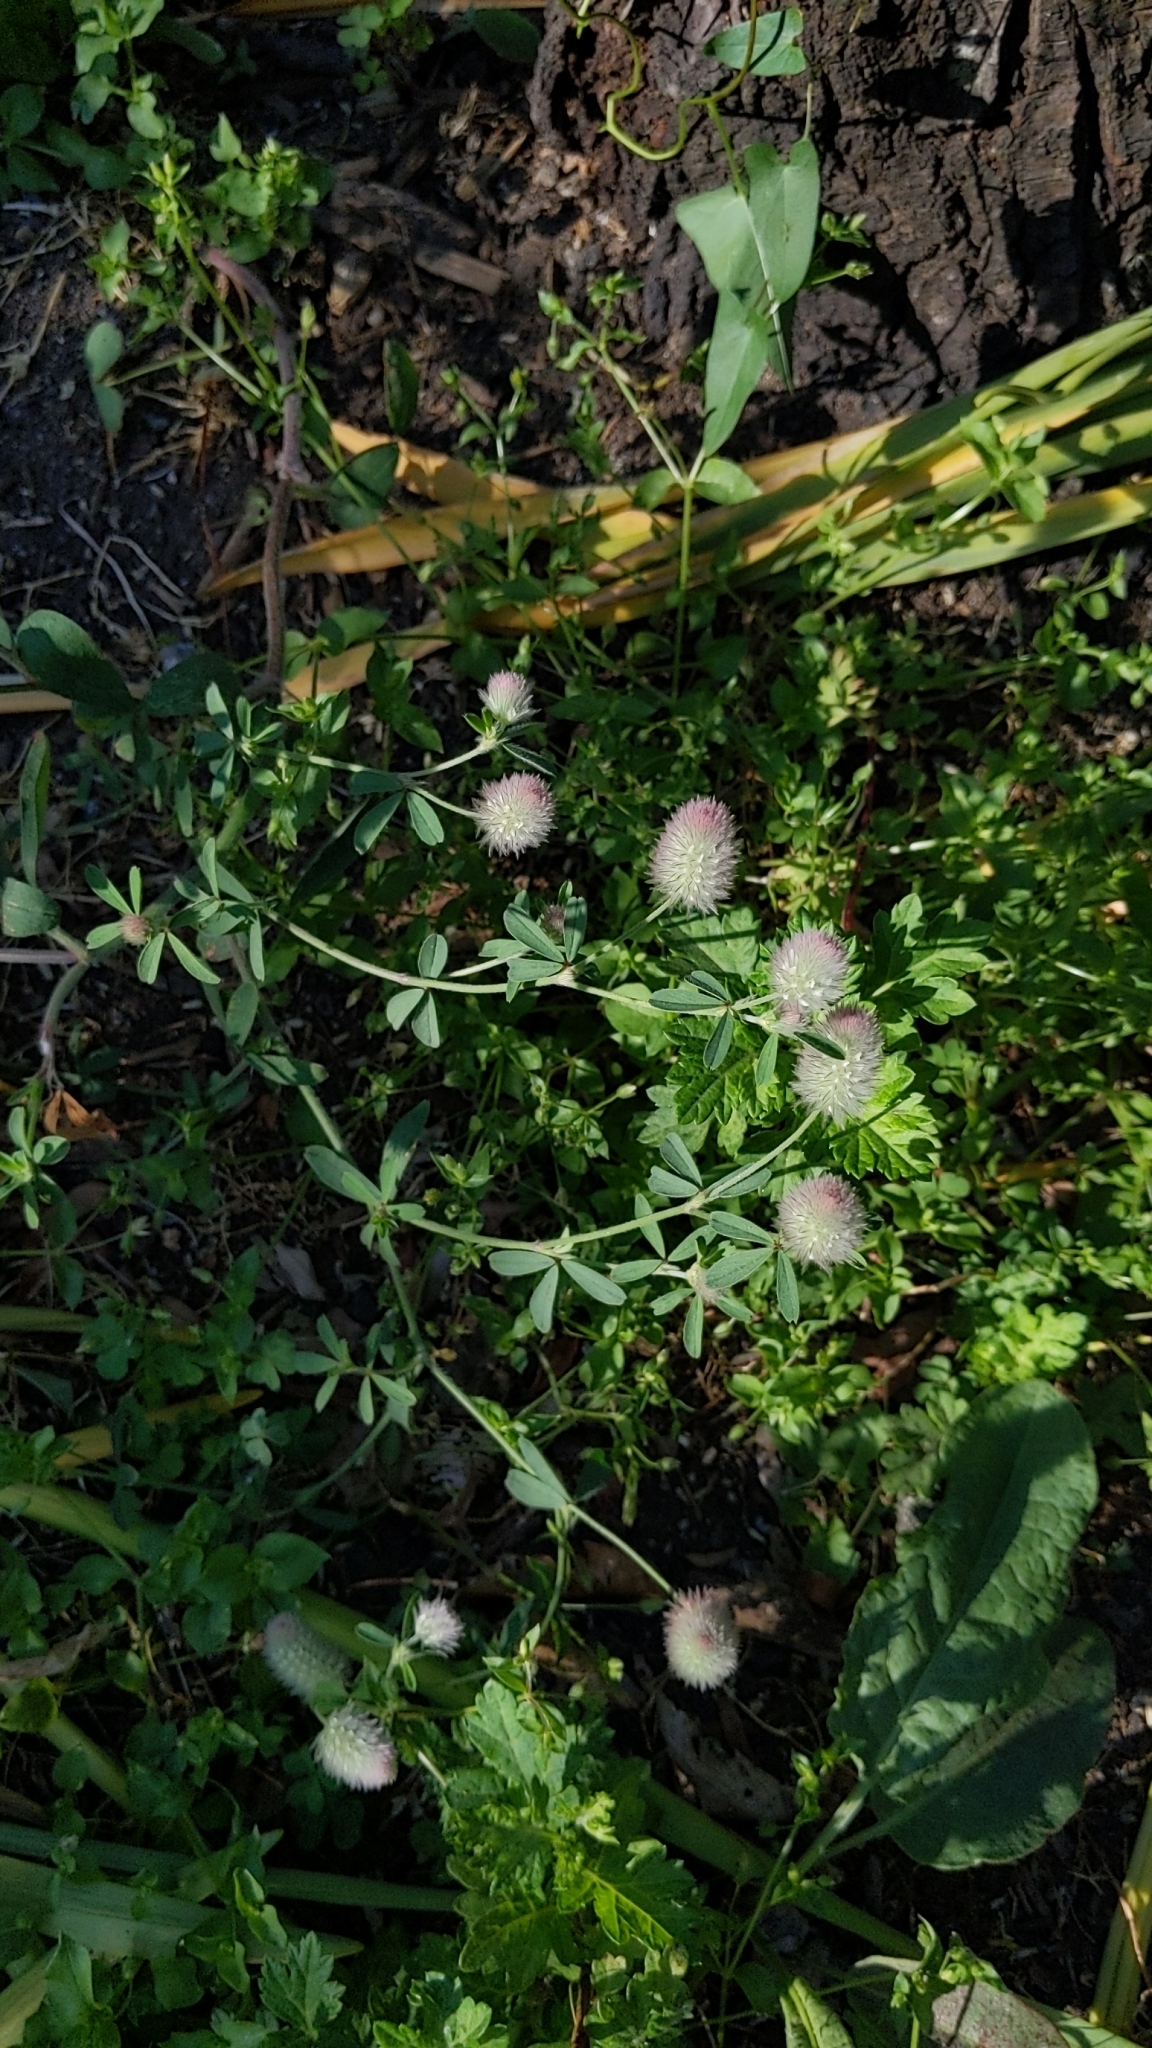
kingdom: Plantae
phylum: Tracheophyta
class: Magnoliopsida
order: Fabales
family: Fabaceae
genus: Trifolium
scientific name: Trifolium arvense
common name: Hare's-foot clover
